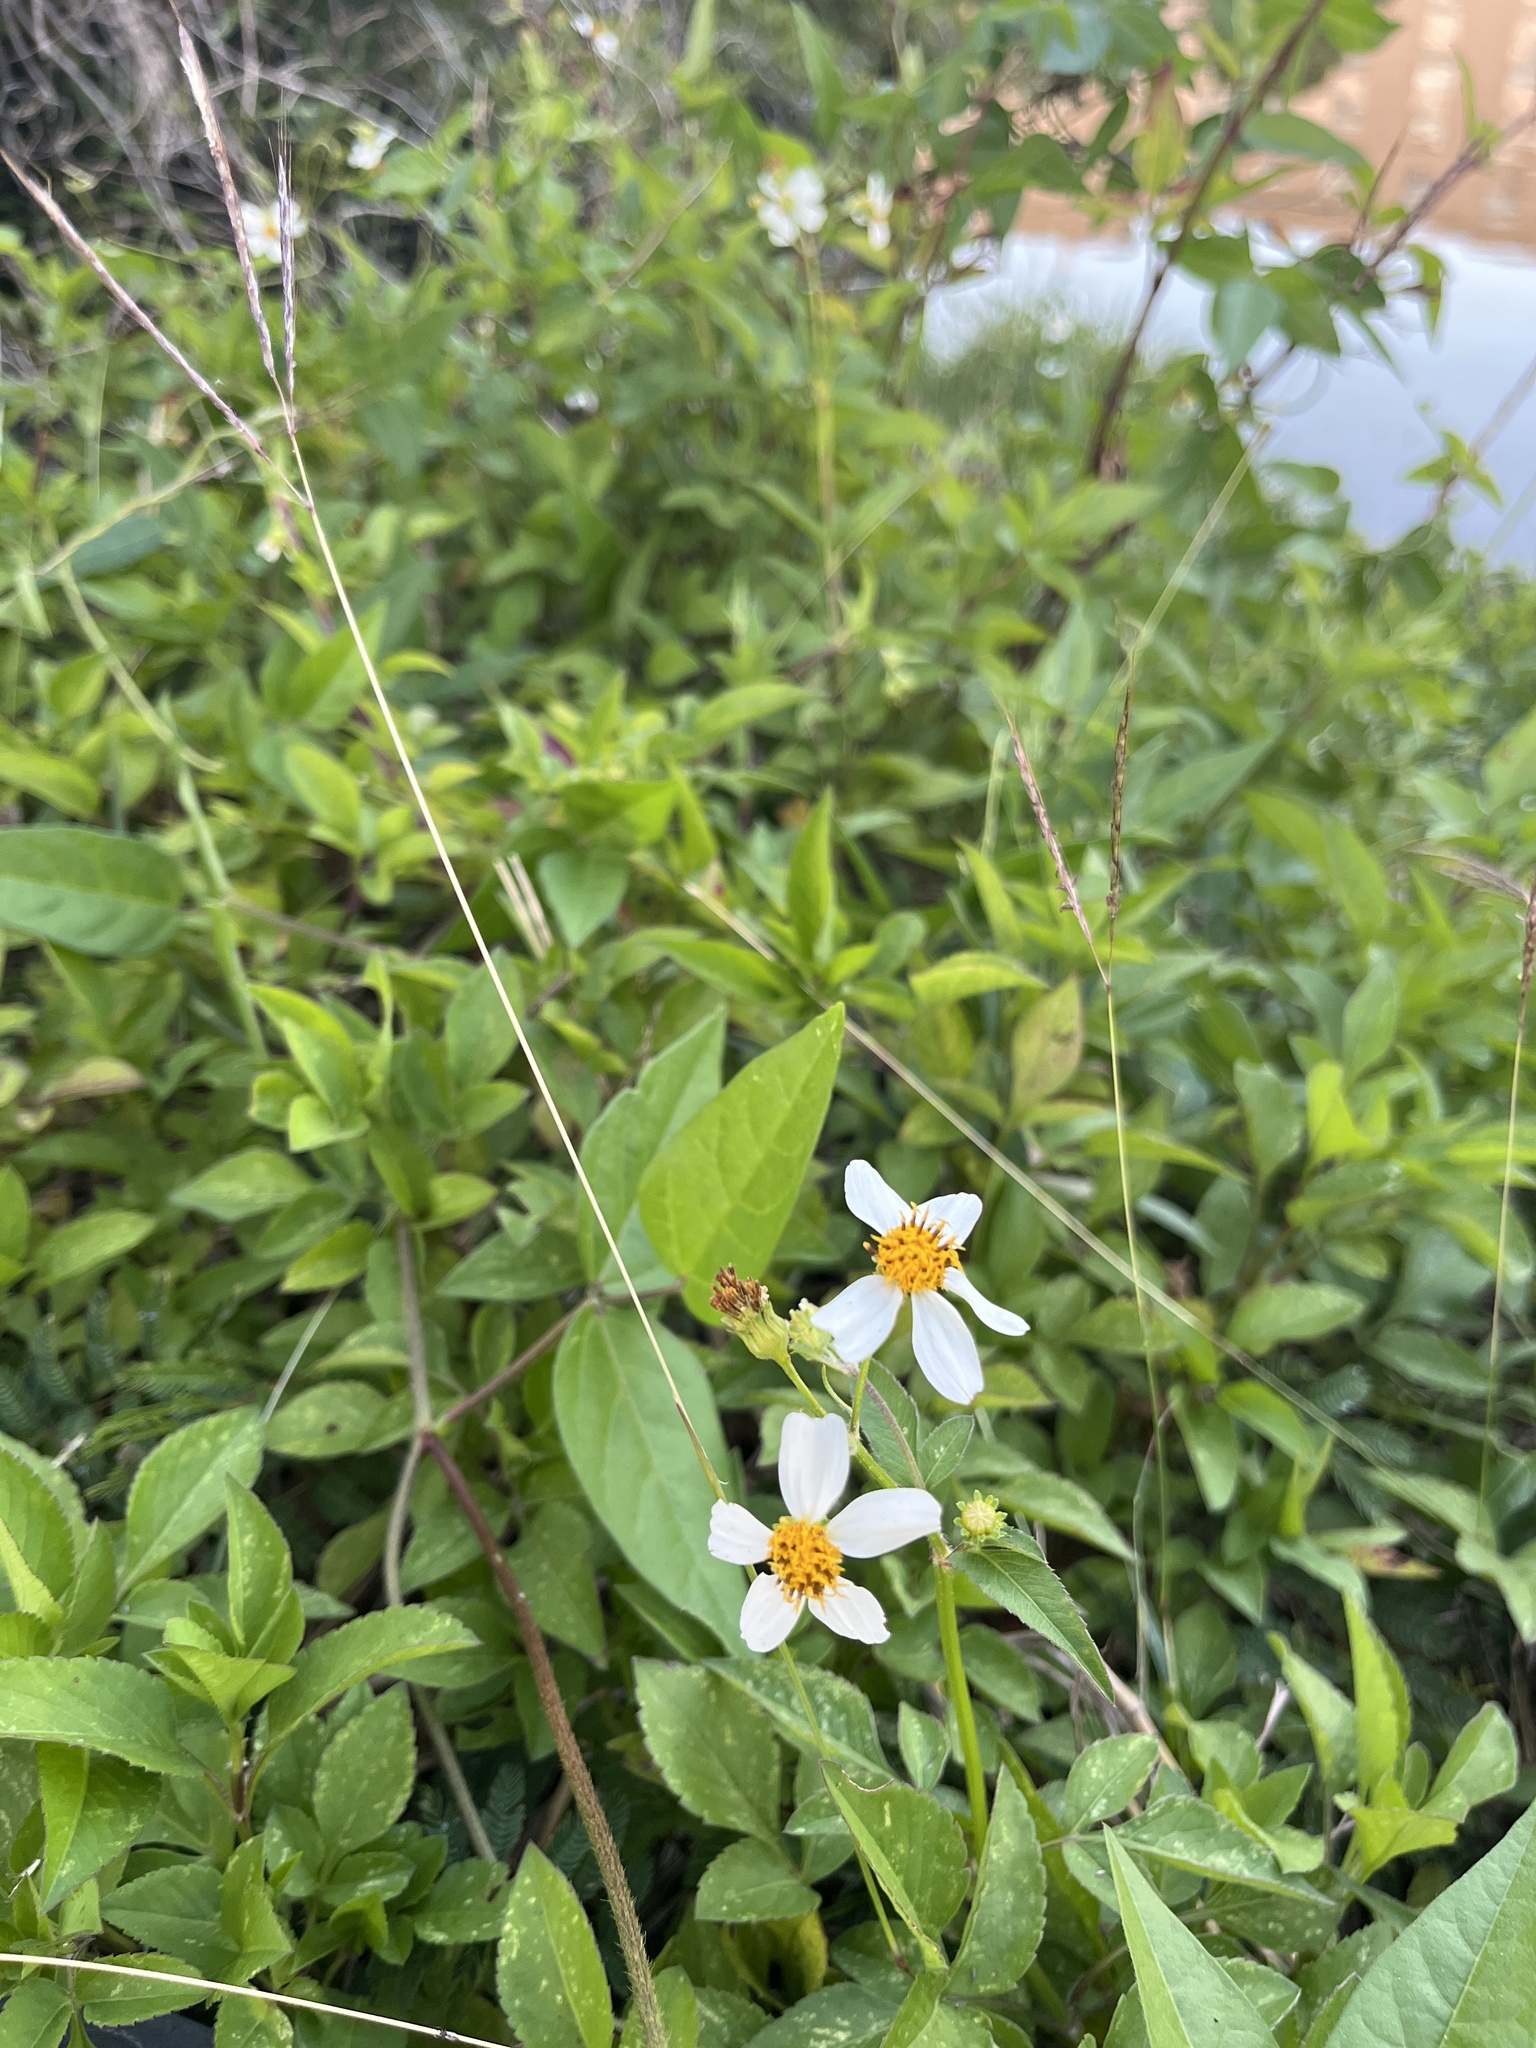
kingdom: Plantae
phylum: Tracheophyta
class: Magnoliopsida
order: Asterales
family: Asteraceae
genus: Bidens
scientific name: Bidens alba
